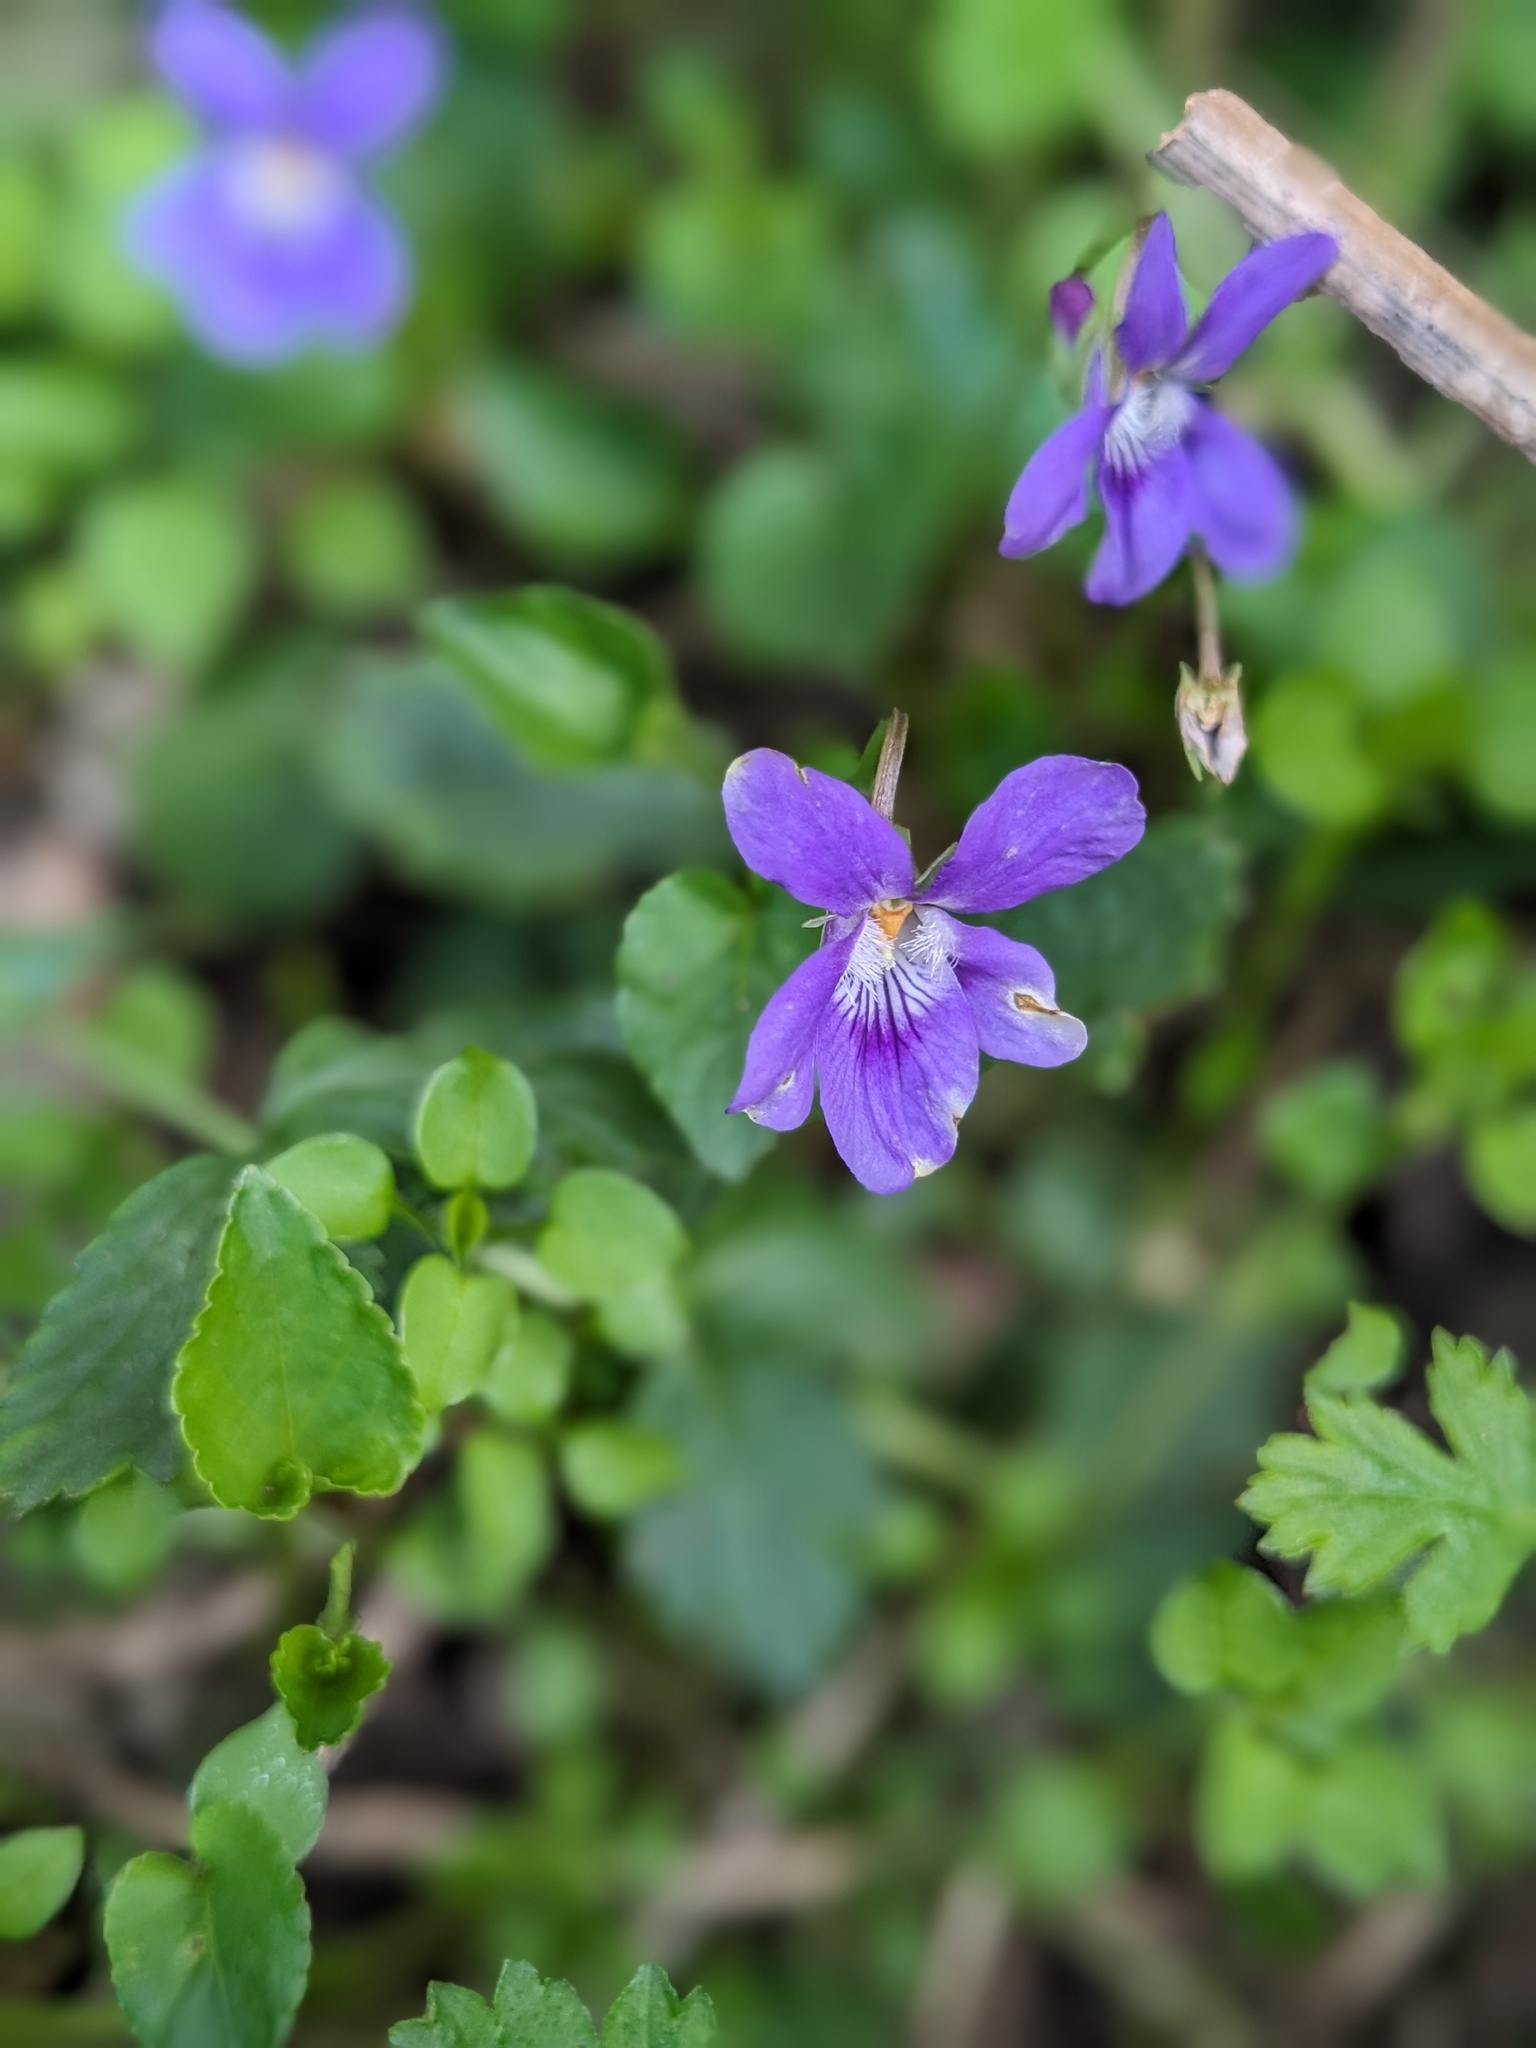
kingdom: Plantae
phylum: Tracheophyta
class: Magnoliopsida
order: Malpighiales
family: Violaceae
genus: Viola
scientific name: Viola reichenbachiana
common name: Early dog-violet
